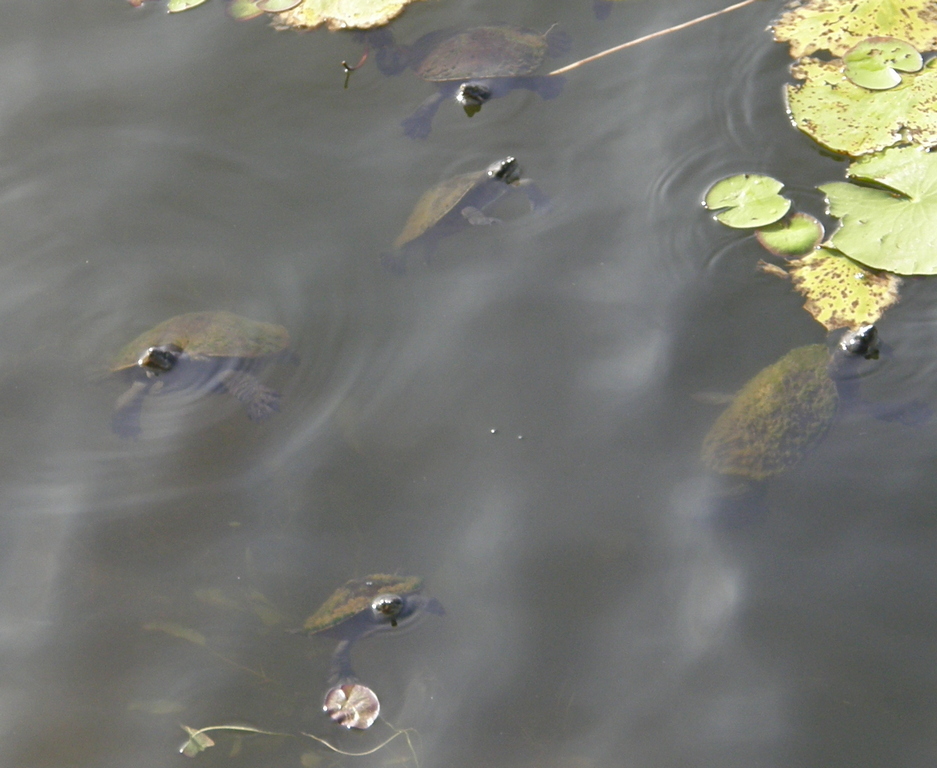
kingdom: Animalia
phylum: Chordata
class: Testudines
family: Chelidae
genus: Emydura
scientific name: Emydura macquarii
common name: Murray river turtle
